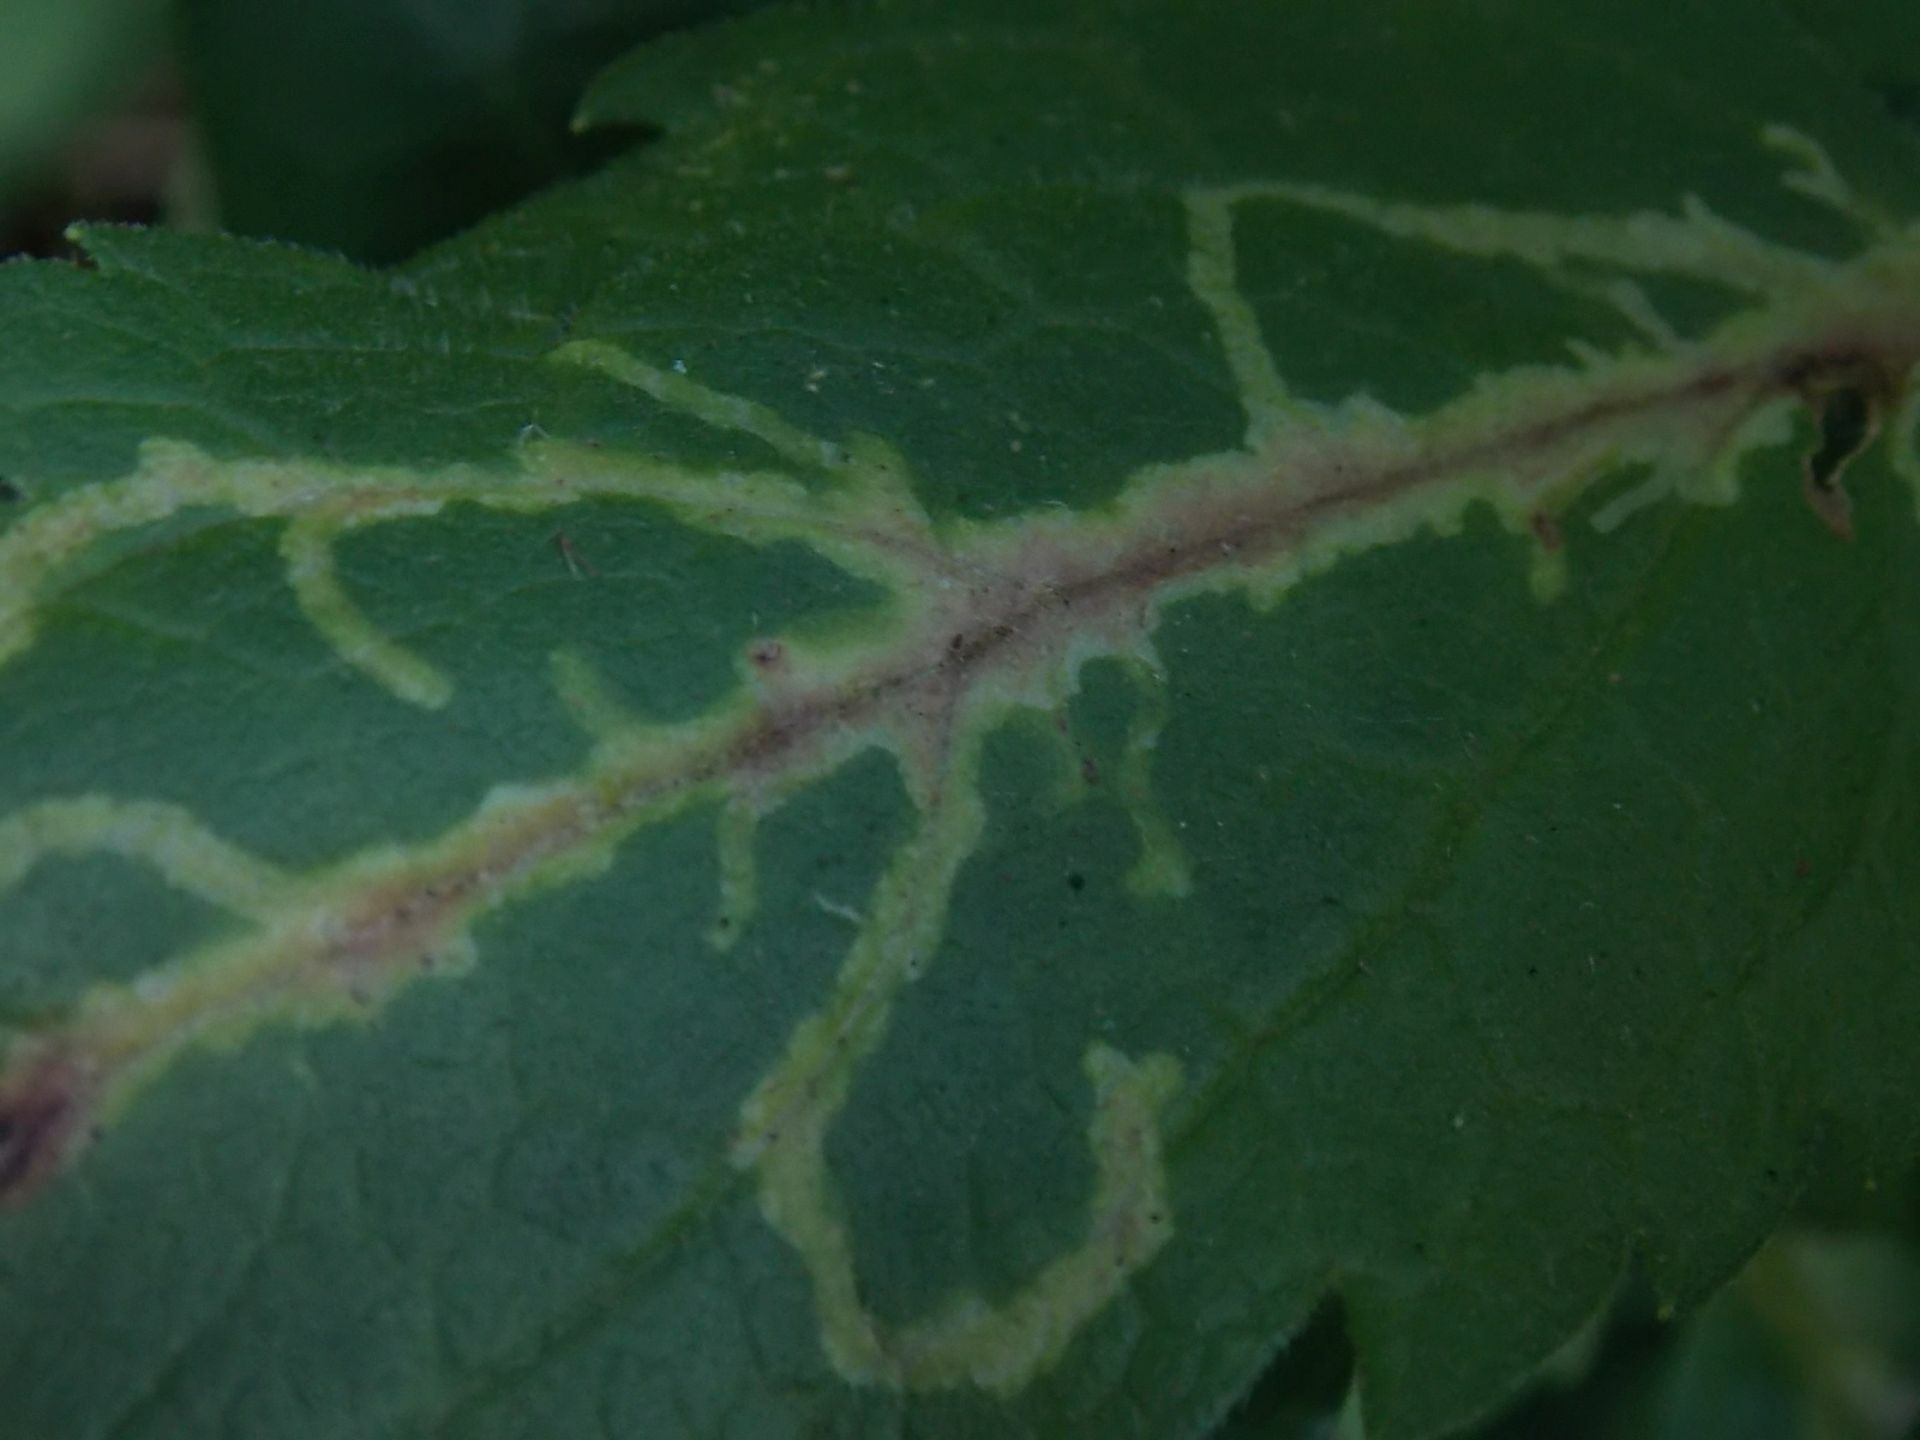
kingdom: Animalia
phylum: Arthropoda
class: Insecta
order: Diptera
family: Agromyzidae
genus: Liriomyza
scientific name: Liriomyza strigata
